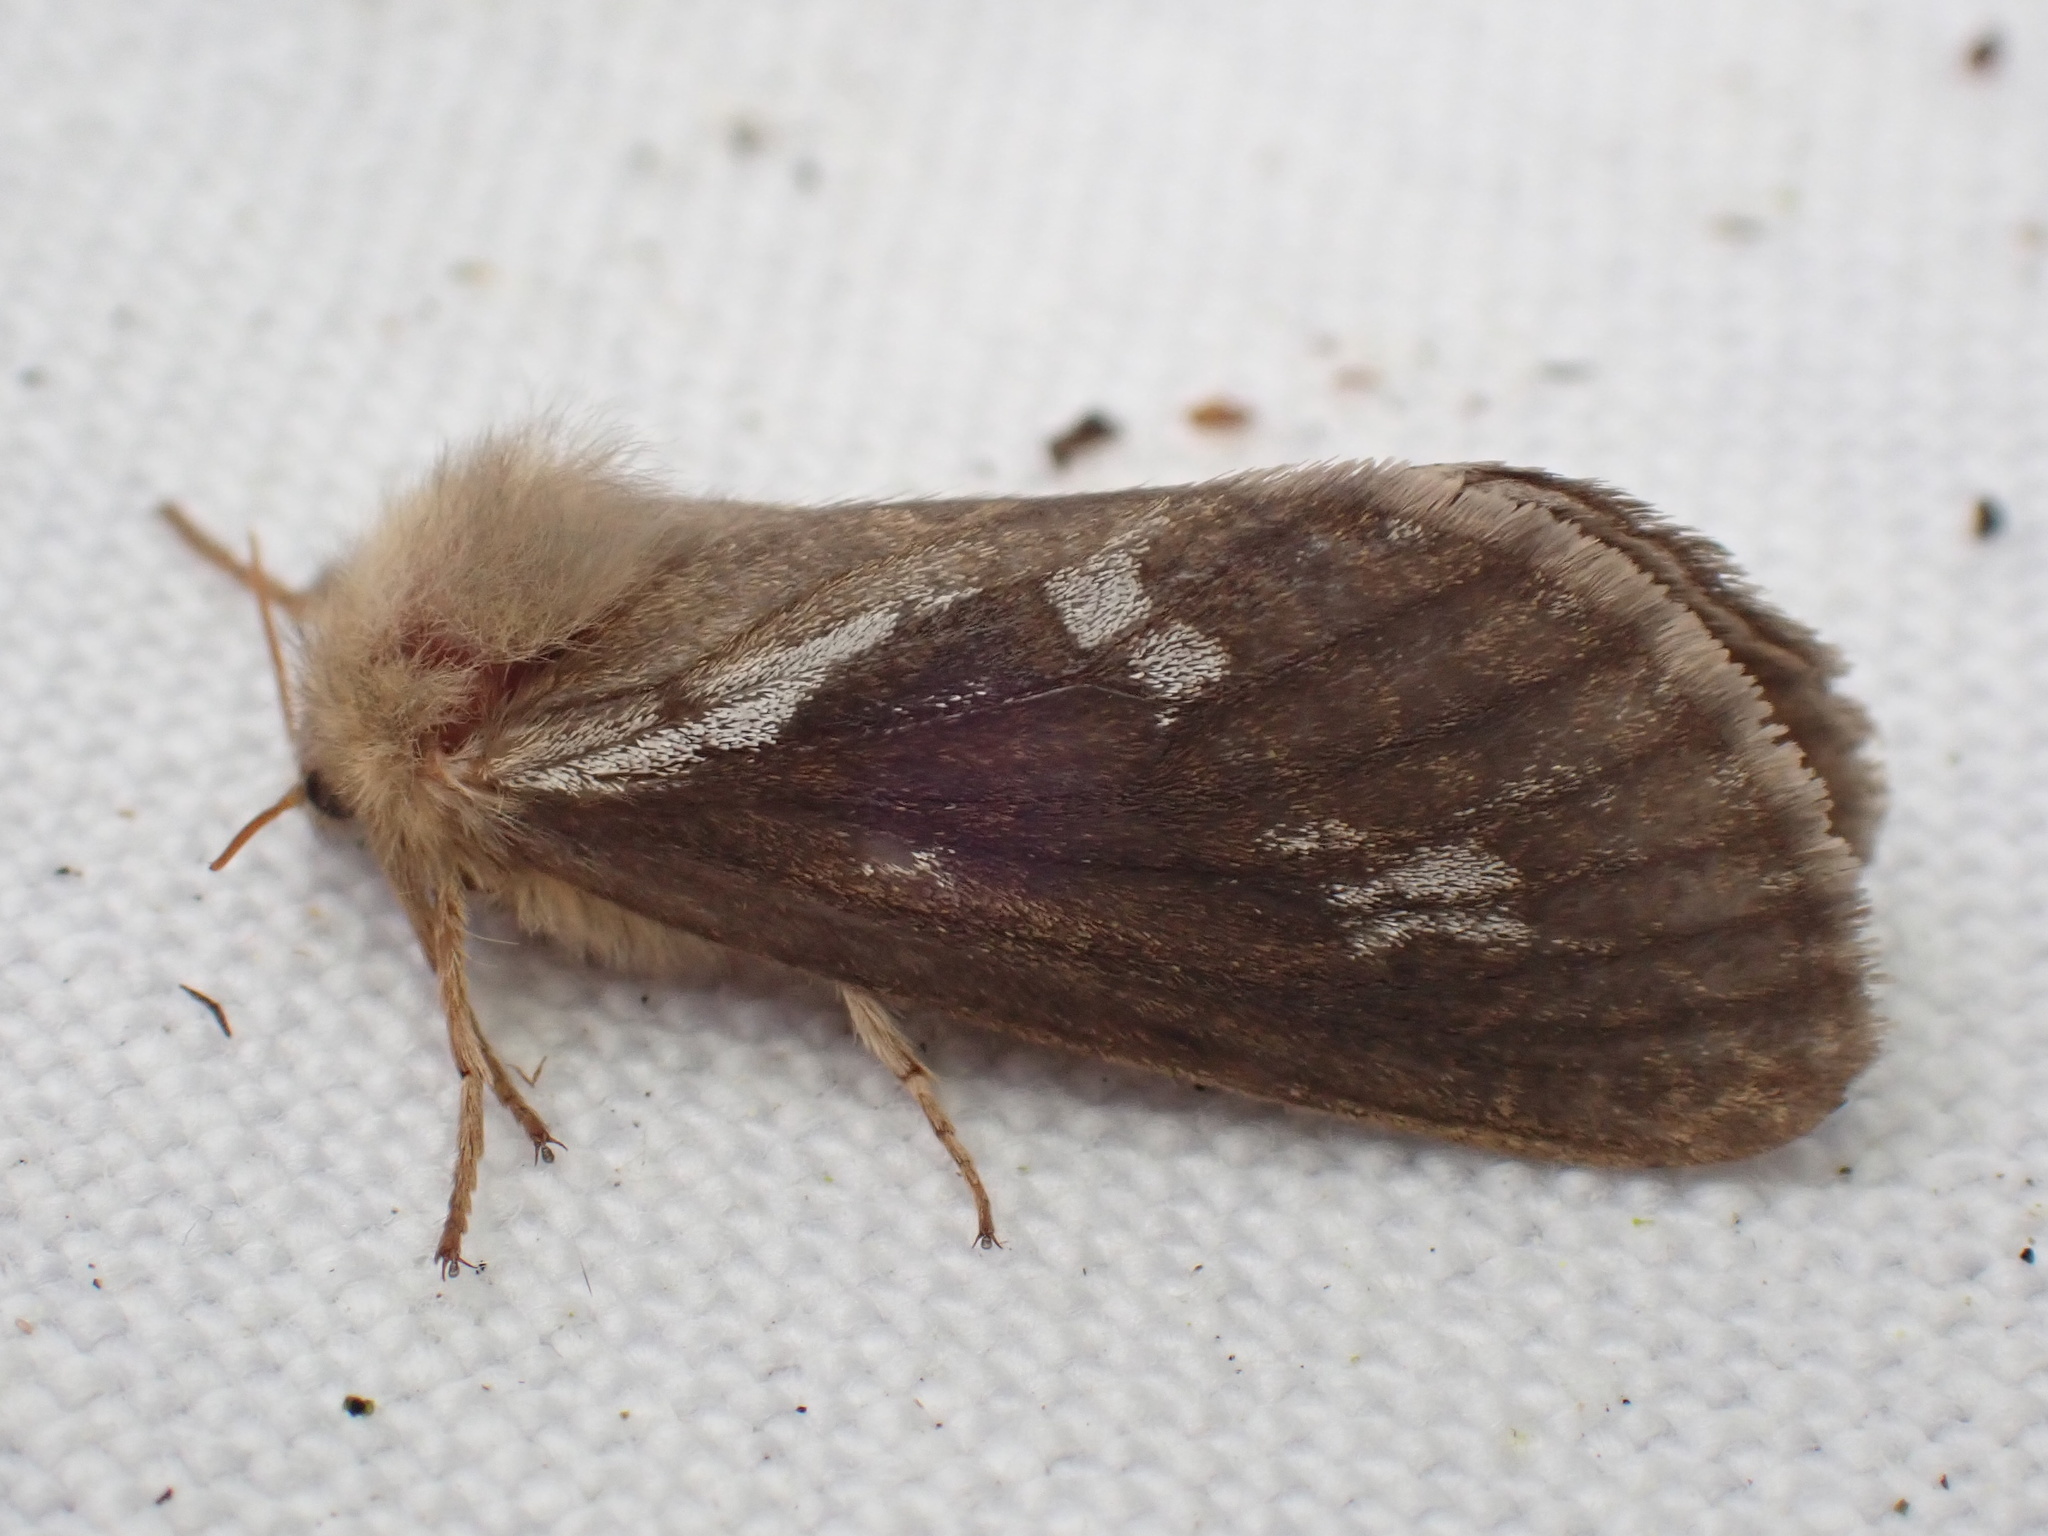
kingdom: Animalia
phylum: Arthropoda
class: Insecta
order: Lepidoptera
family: Hepialidae
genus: Korscheltellus
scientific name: Korscheltellus lupulina
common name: Common swift
